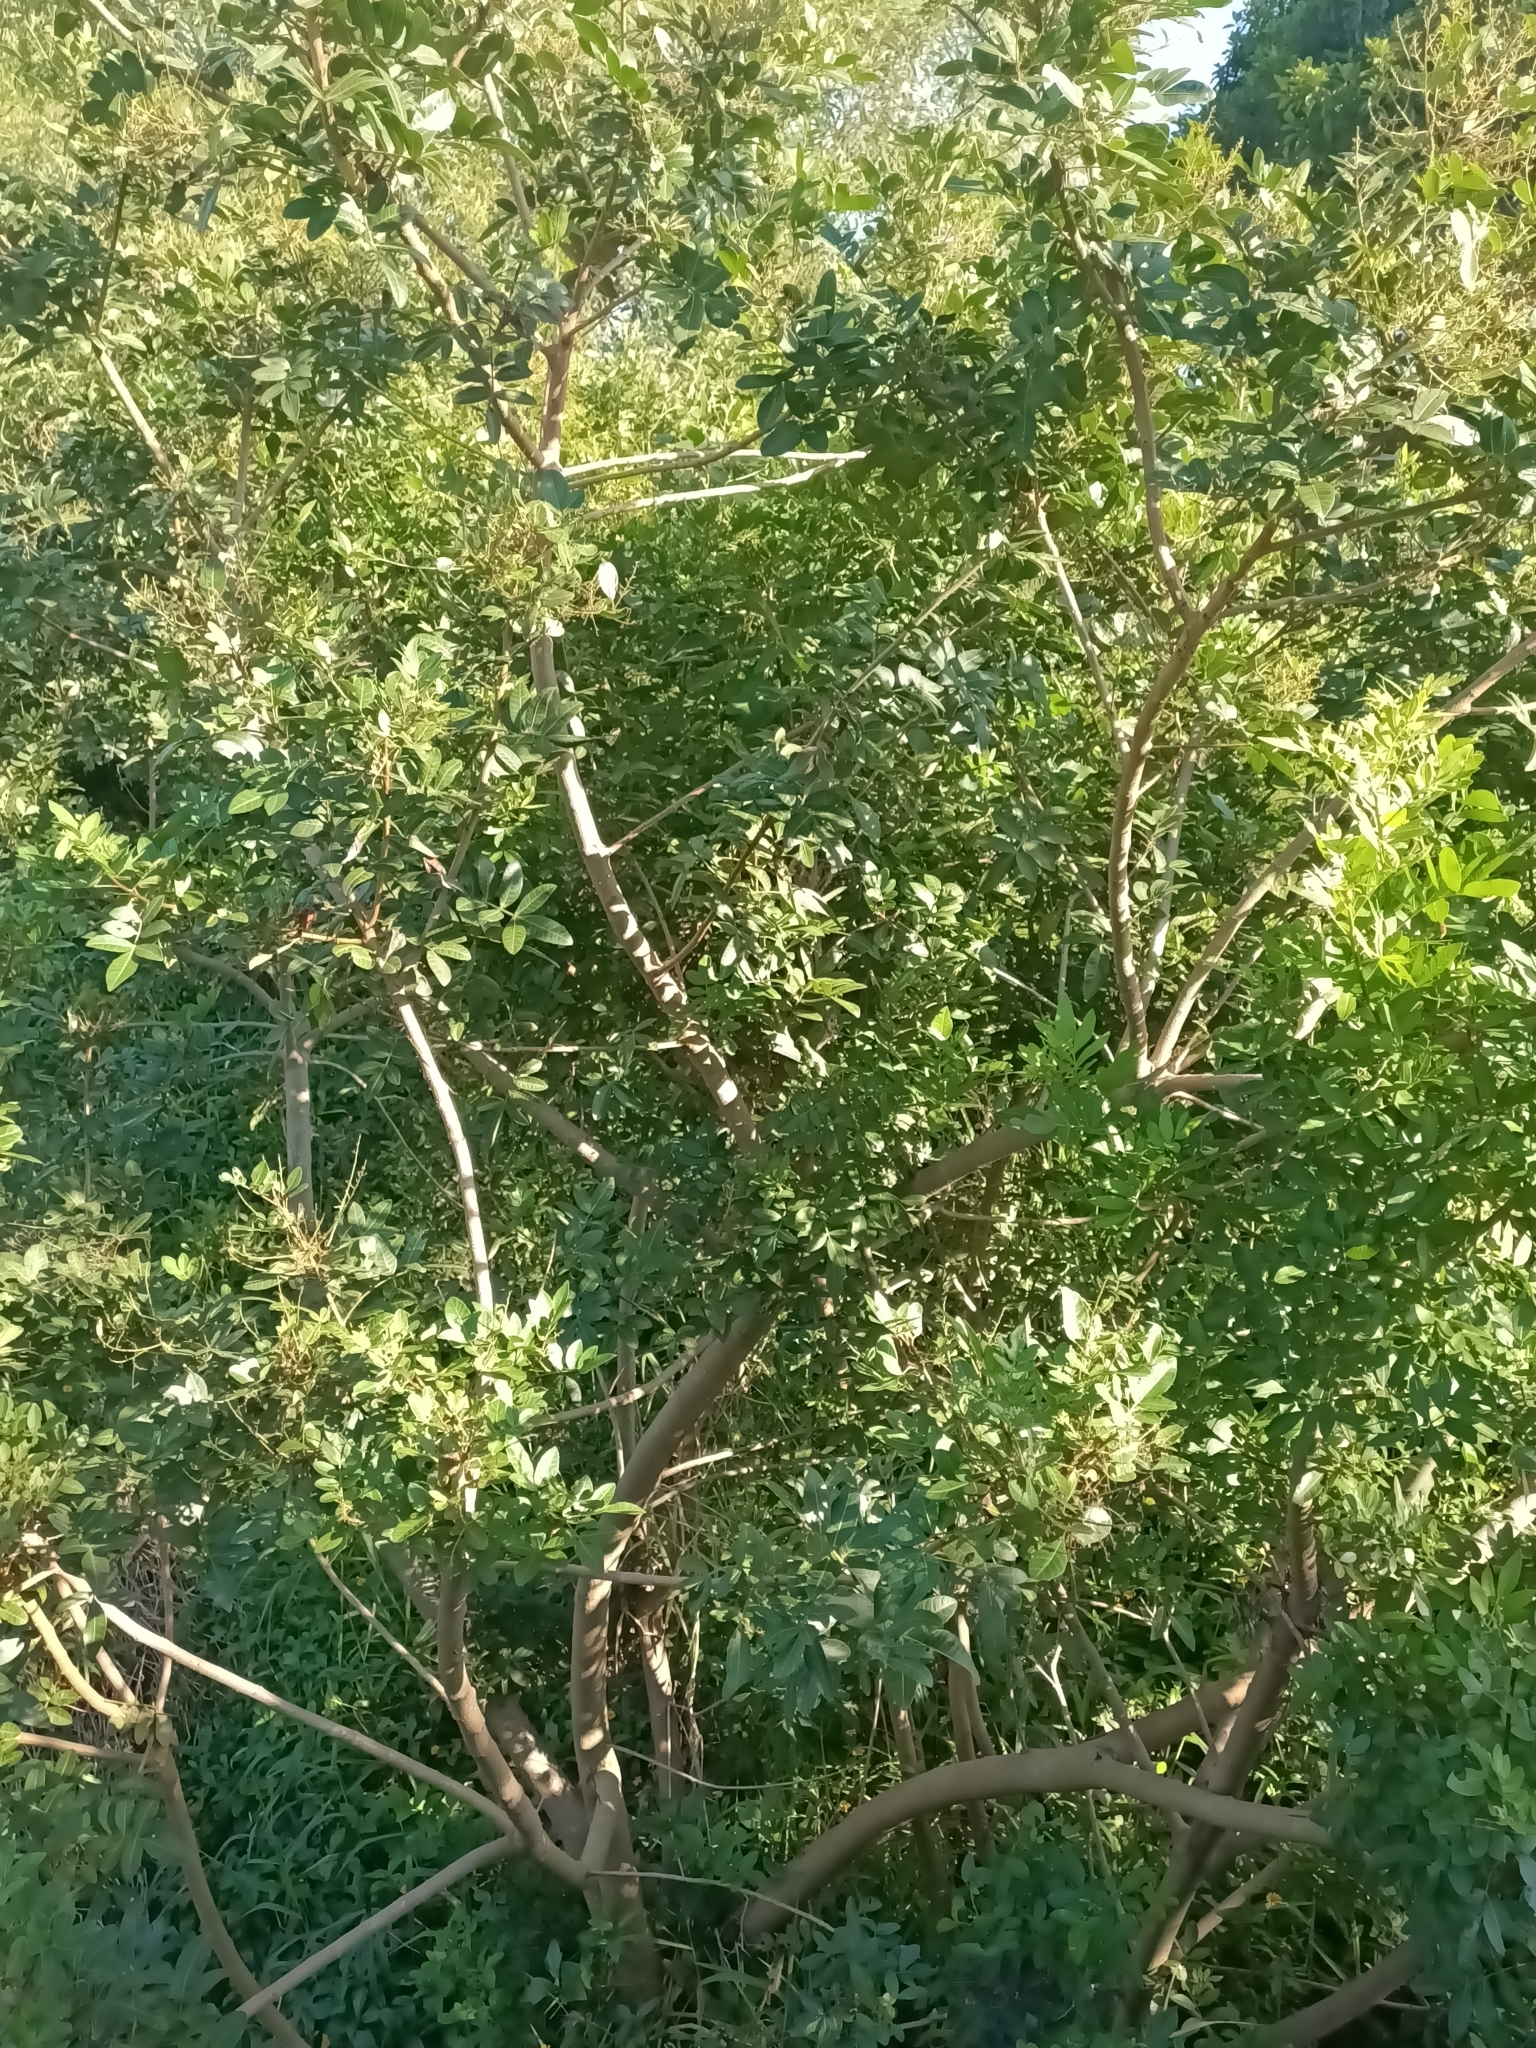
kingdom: Plantae
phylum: Tracheophyta
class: Magnoliopsida
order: Sapindales
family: Anacardiaceae
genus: Schinus
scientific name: Schinus terebinthifolia
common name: Brazilian peppertree
